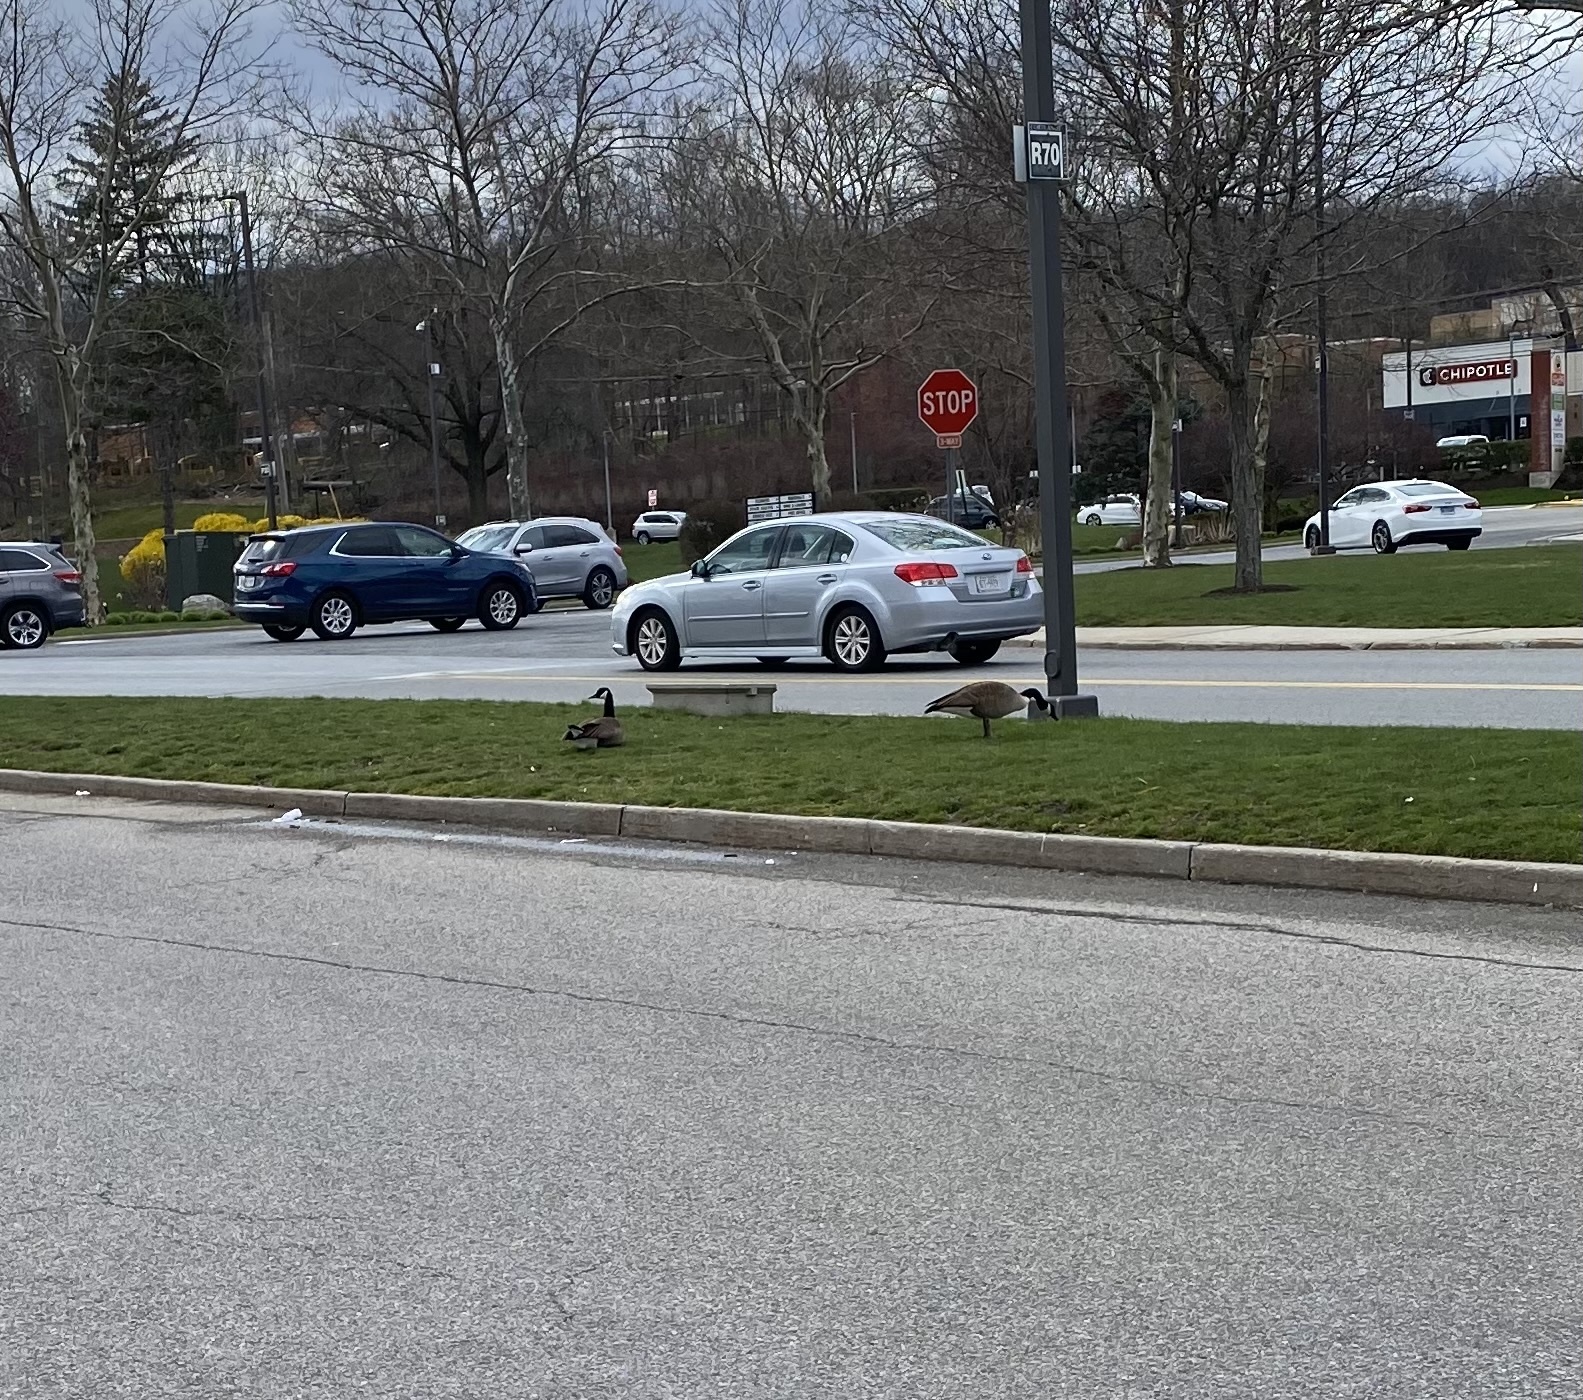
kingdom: Animalia
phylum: Chordata
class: Aves
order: Anseriformes
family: Anatidae
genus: Branta
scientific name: Branta canadensis
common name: Canada goose
